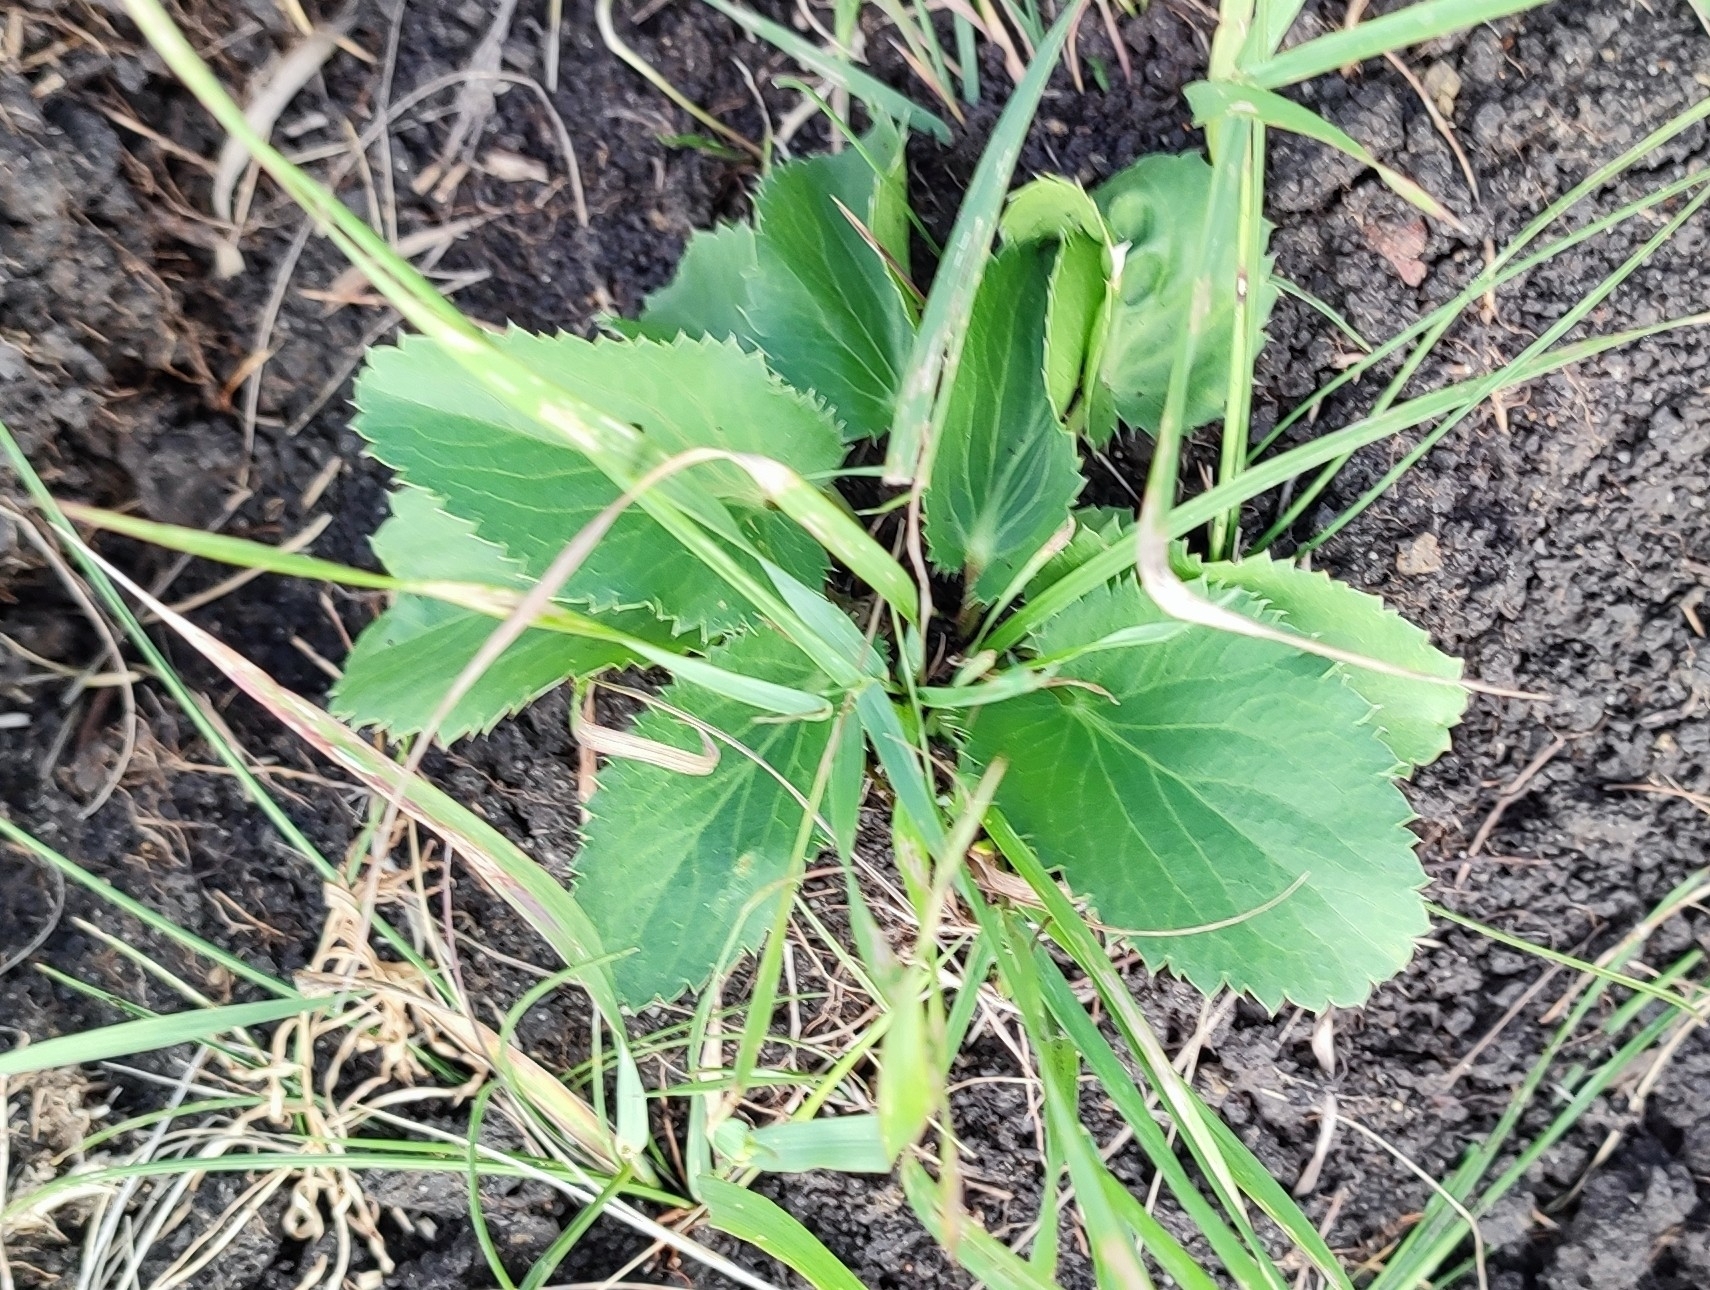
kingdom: Plantae
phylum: Tracheophyta
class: Magnoliopsida
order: Apiales
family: Apiaceae
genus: Eryngium
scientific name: Eryngium planum
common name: Blue eryngo
